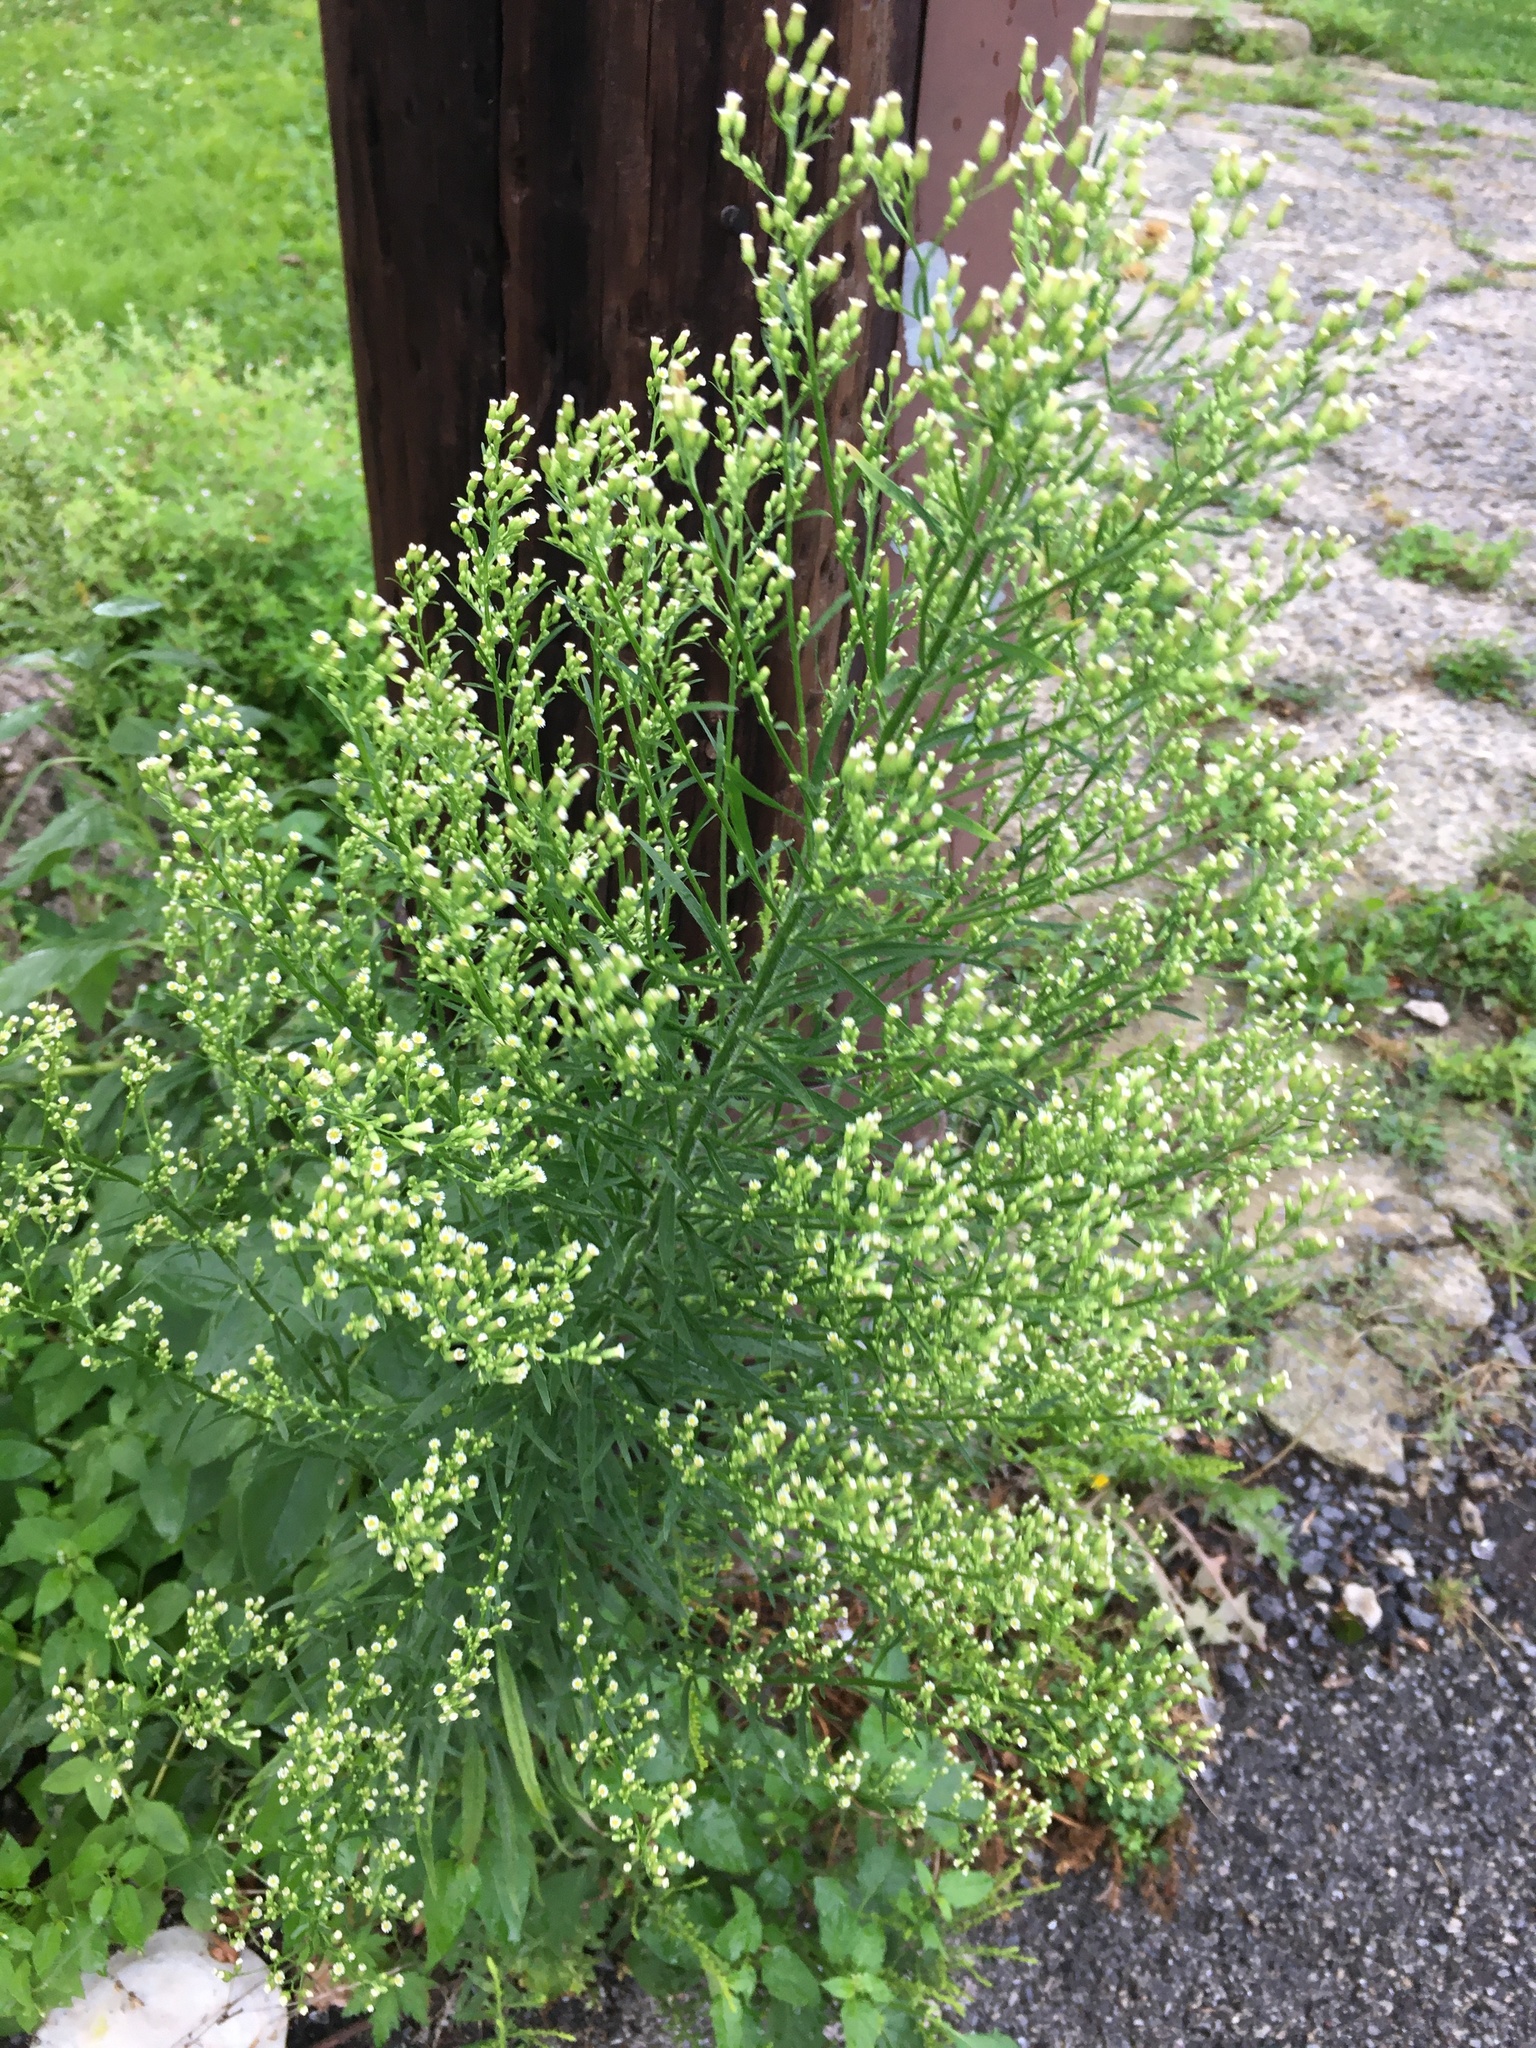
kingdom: Plantae
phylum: Tracheophyta
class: Magnoliopsida
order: Asterales
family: Asteraceae
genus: Erigeron
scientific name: Erigeron canadensis
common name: Canadian fleabane
